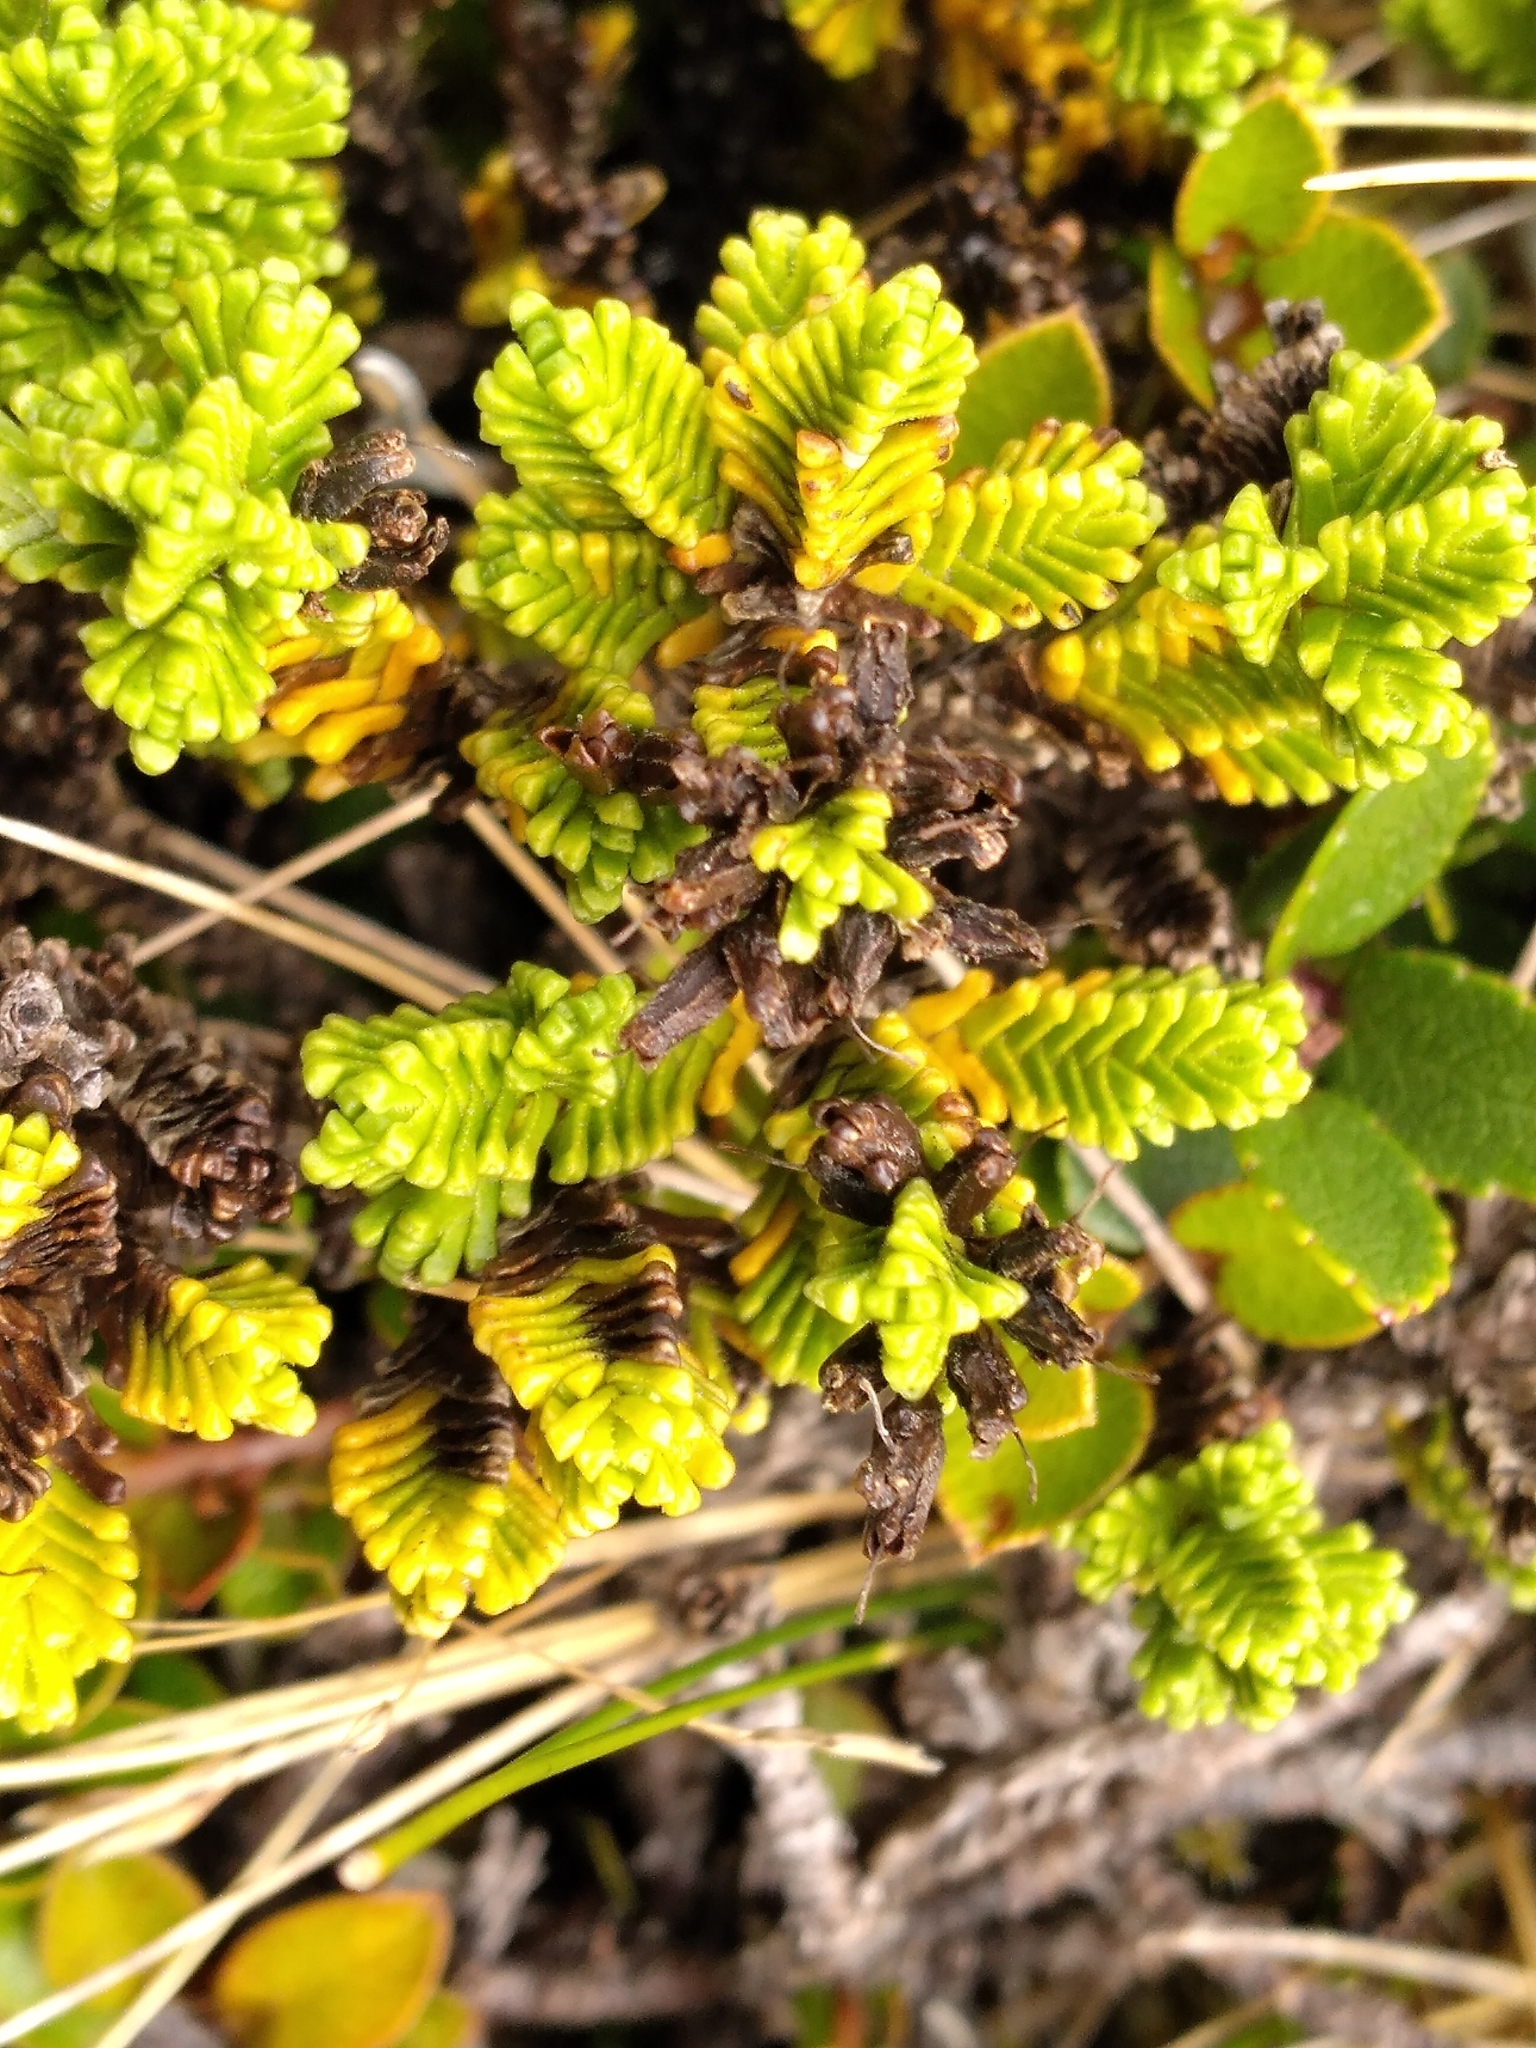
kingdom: Plantae
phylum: Tracheophyta
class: Magnoliopsida
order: Lamiales
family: Plantaginaceae
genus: Veronica
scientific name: Veronica hookeri
